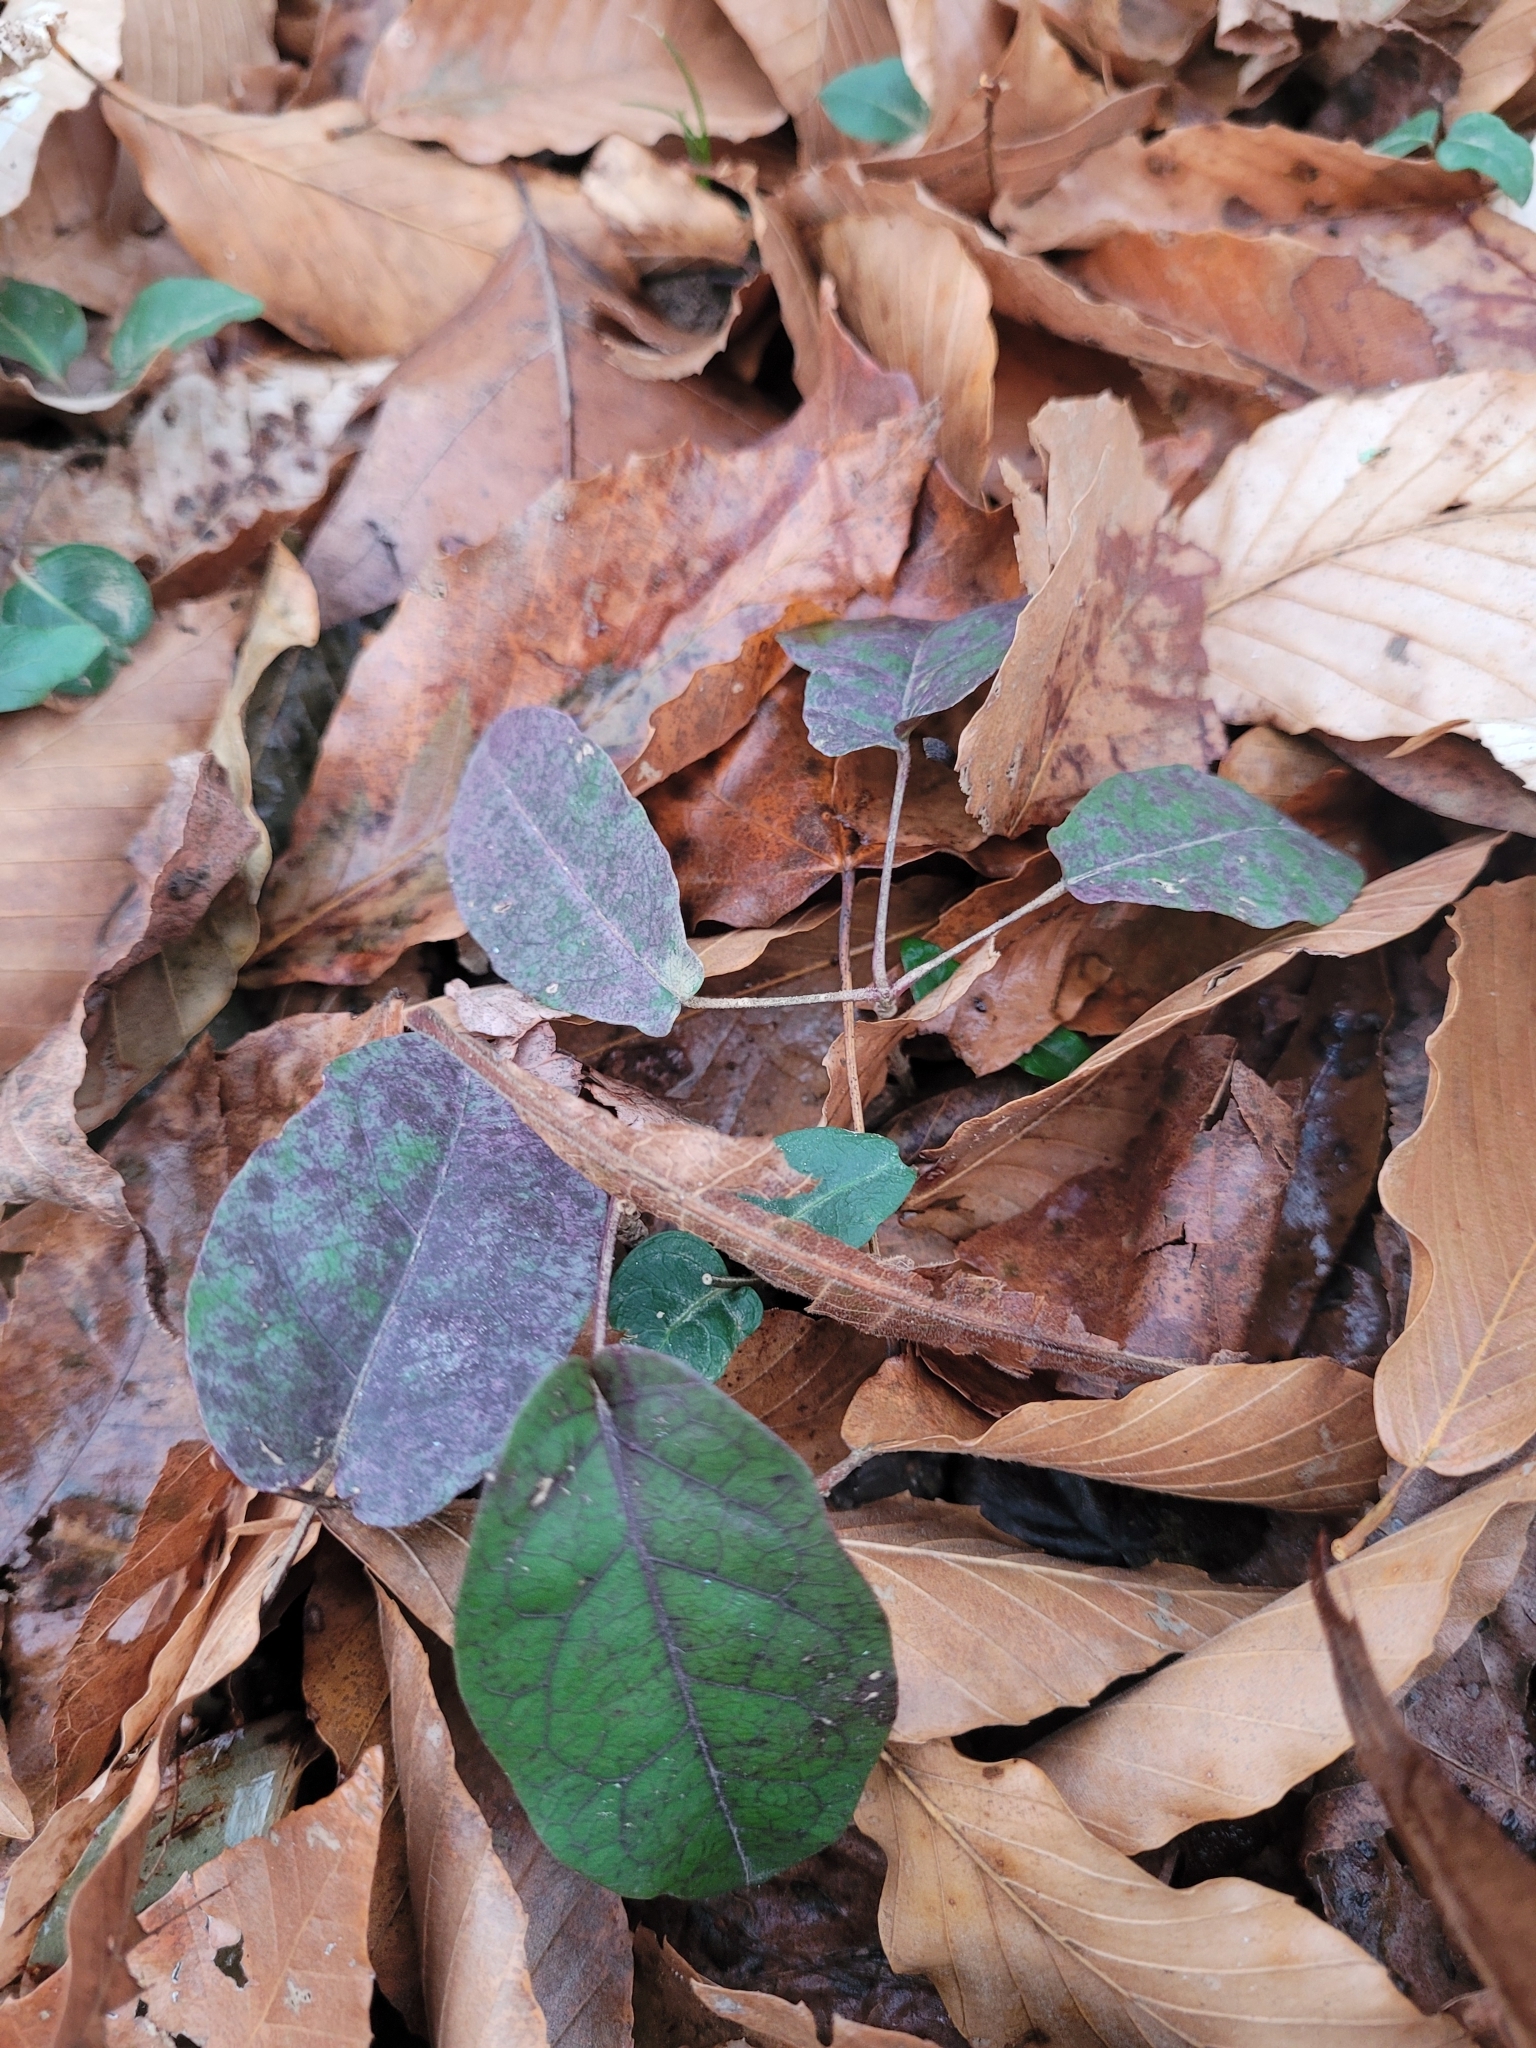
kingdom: Plantae
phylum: Tracheophyta
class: Magnoliopsida
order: Lamiales
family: Bignoniaceae
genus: Bignonia
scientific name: Bignonia capreolata
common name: Crossvine
